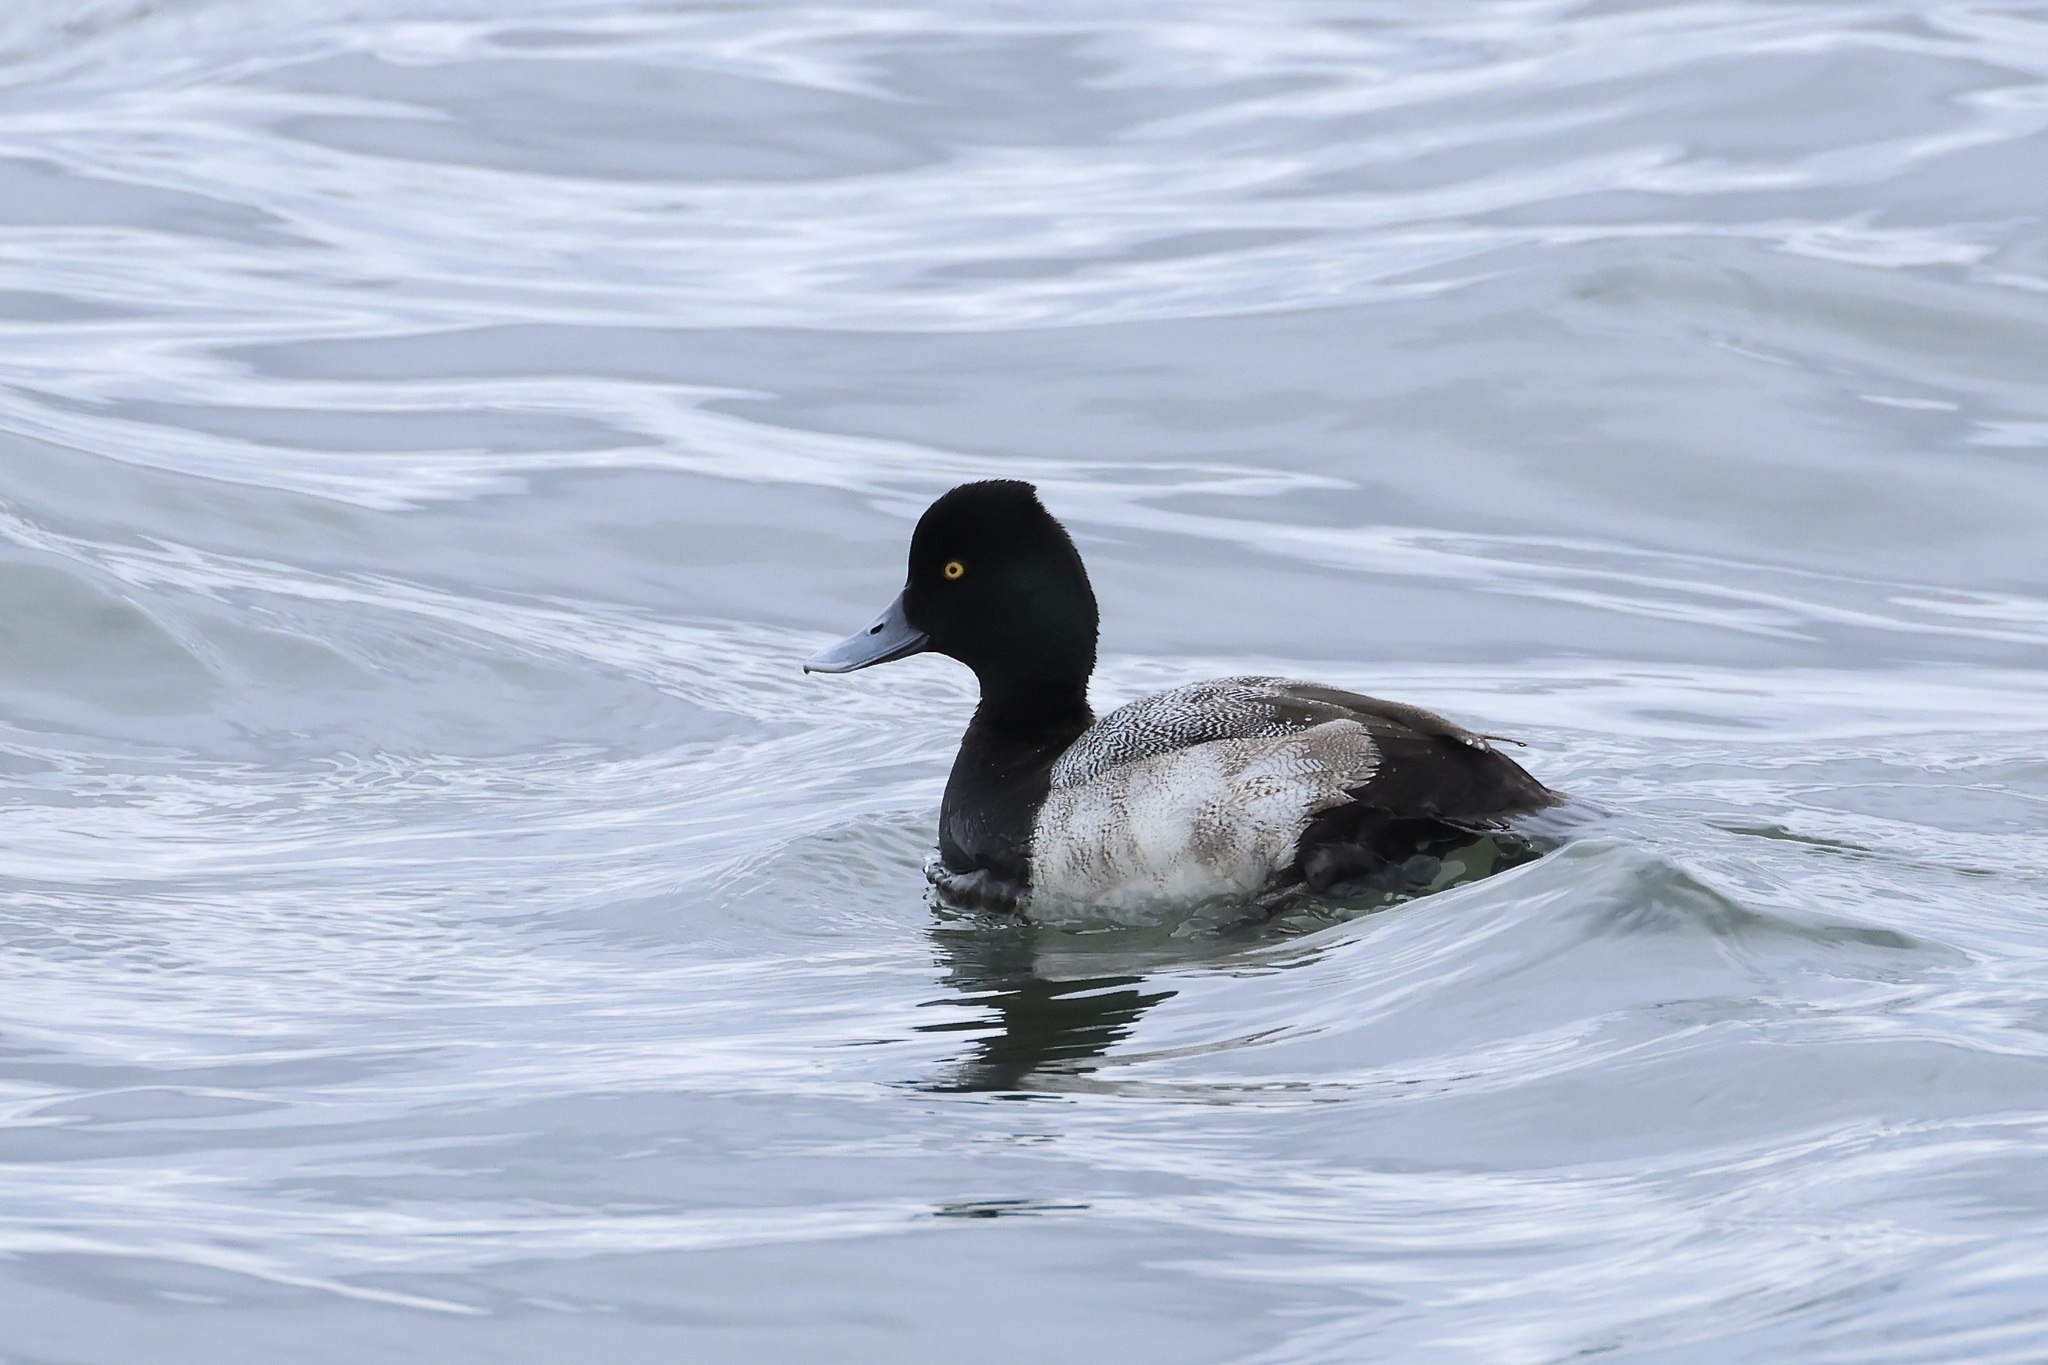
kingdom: Animalia
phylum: Chordata
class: Aves
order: Anseriformes
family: Anatidae
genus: Aythya
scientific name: Aythya affinis
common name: Lesser scaup
